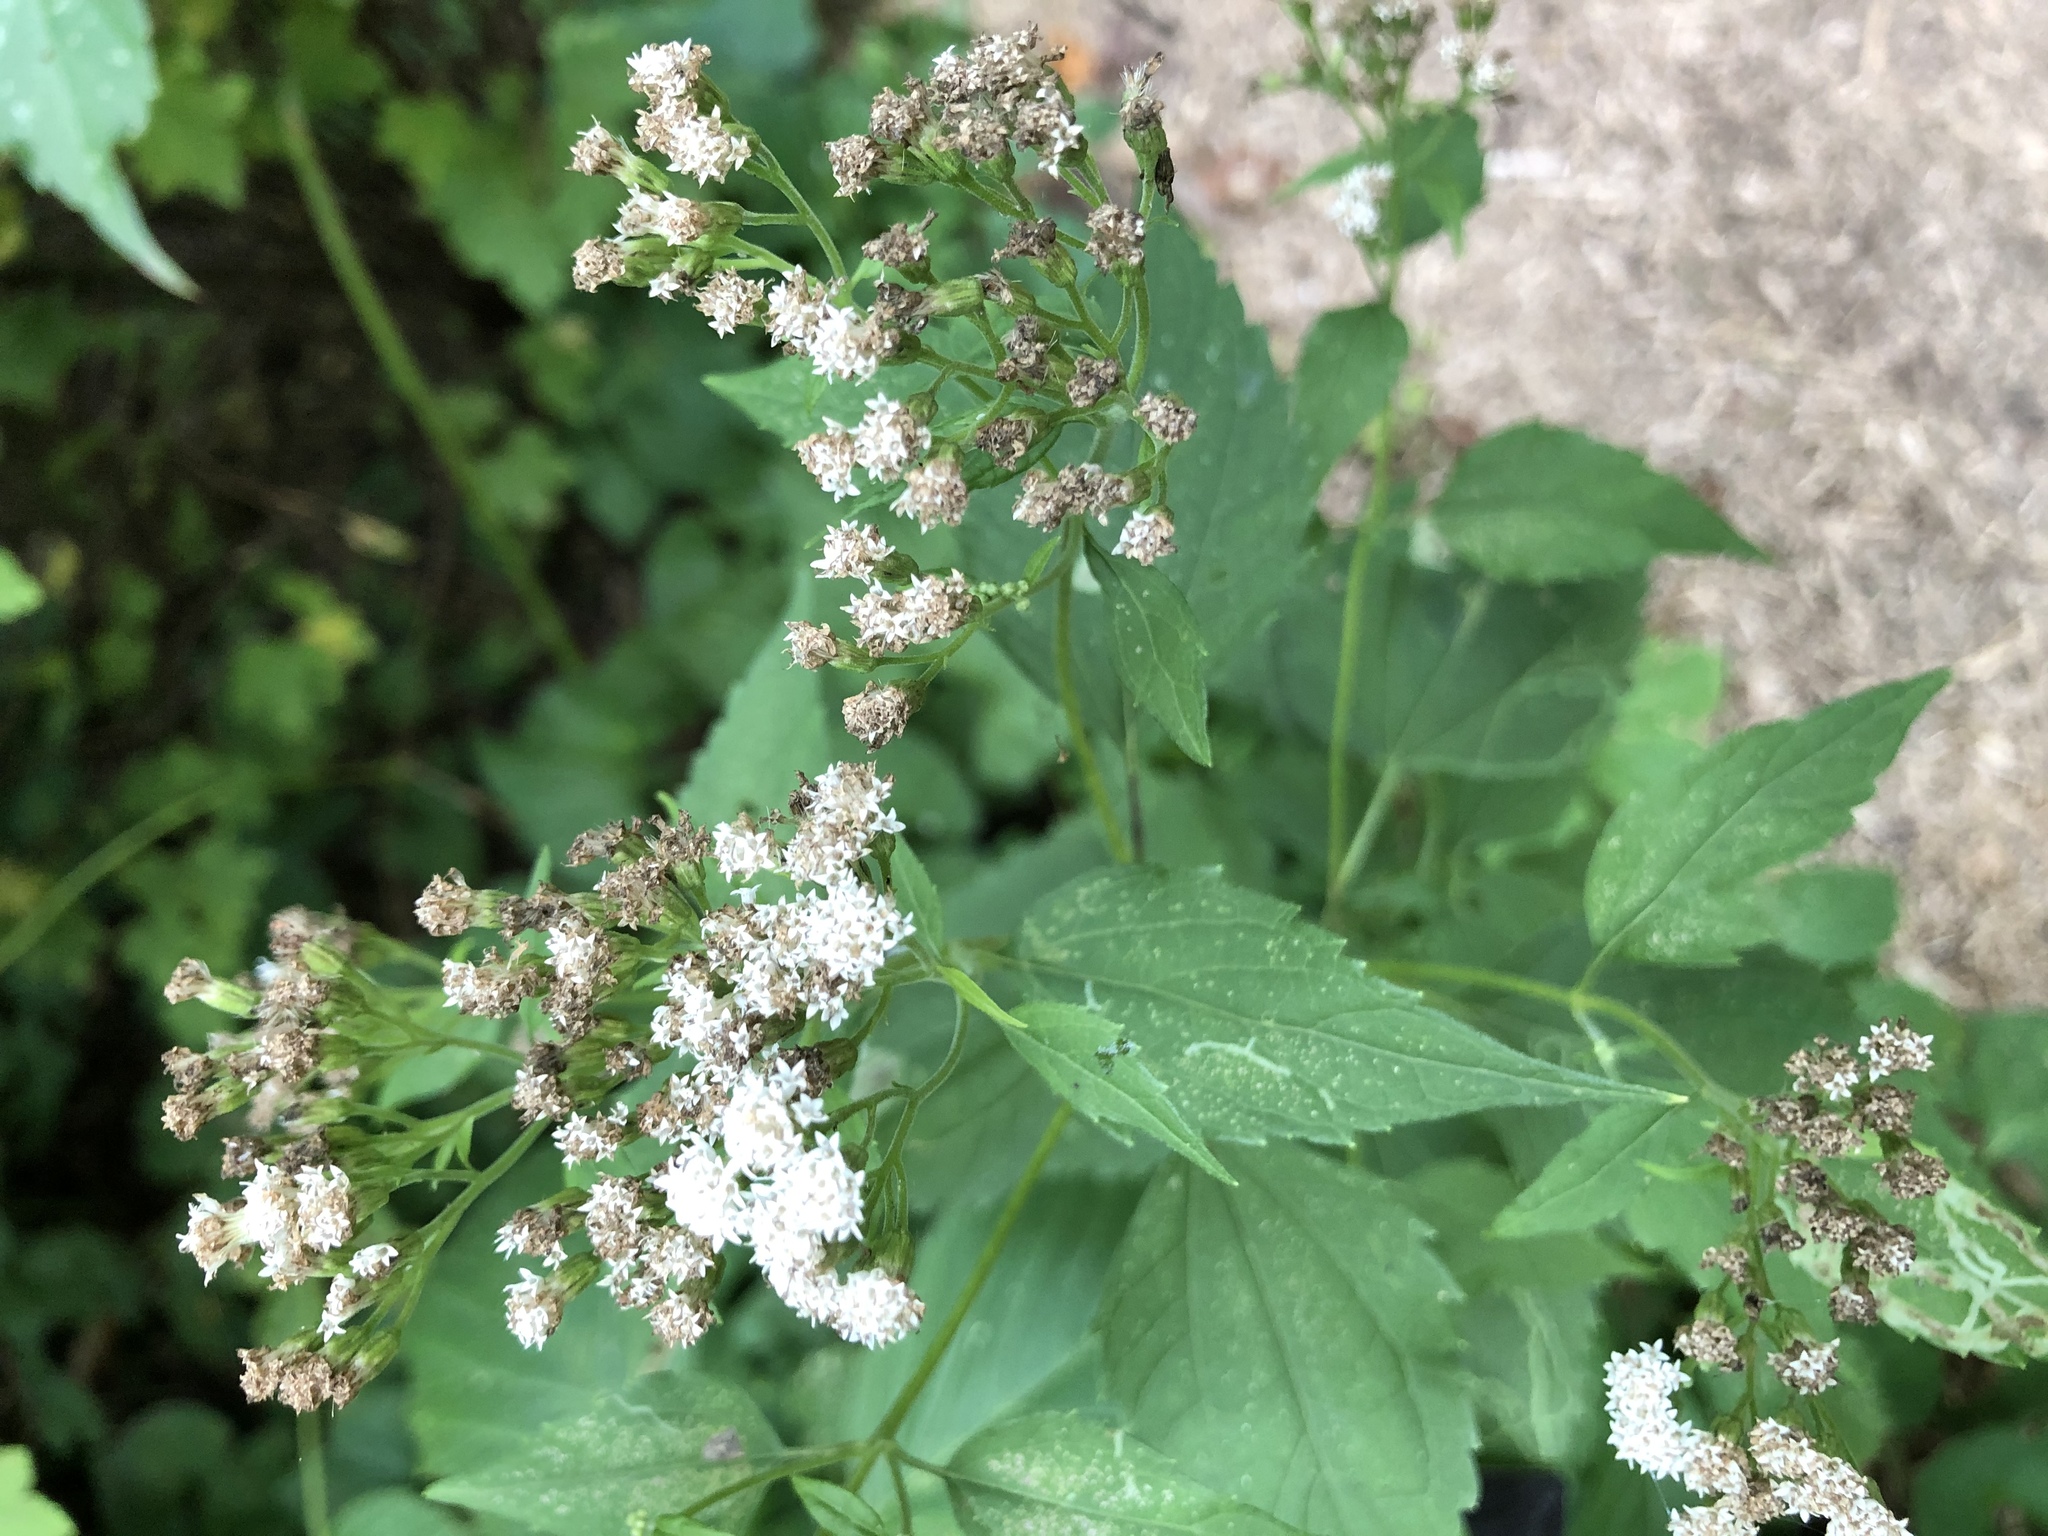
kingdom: Plantae
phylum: Tracheophyta
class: Magnoliopsida
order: Asterales
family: Asteraceae
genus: Ageratina
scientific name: Ageratina altissima
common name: White snakeroot
